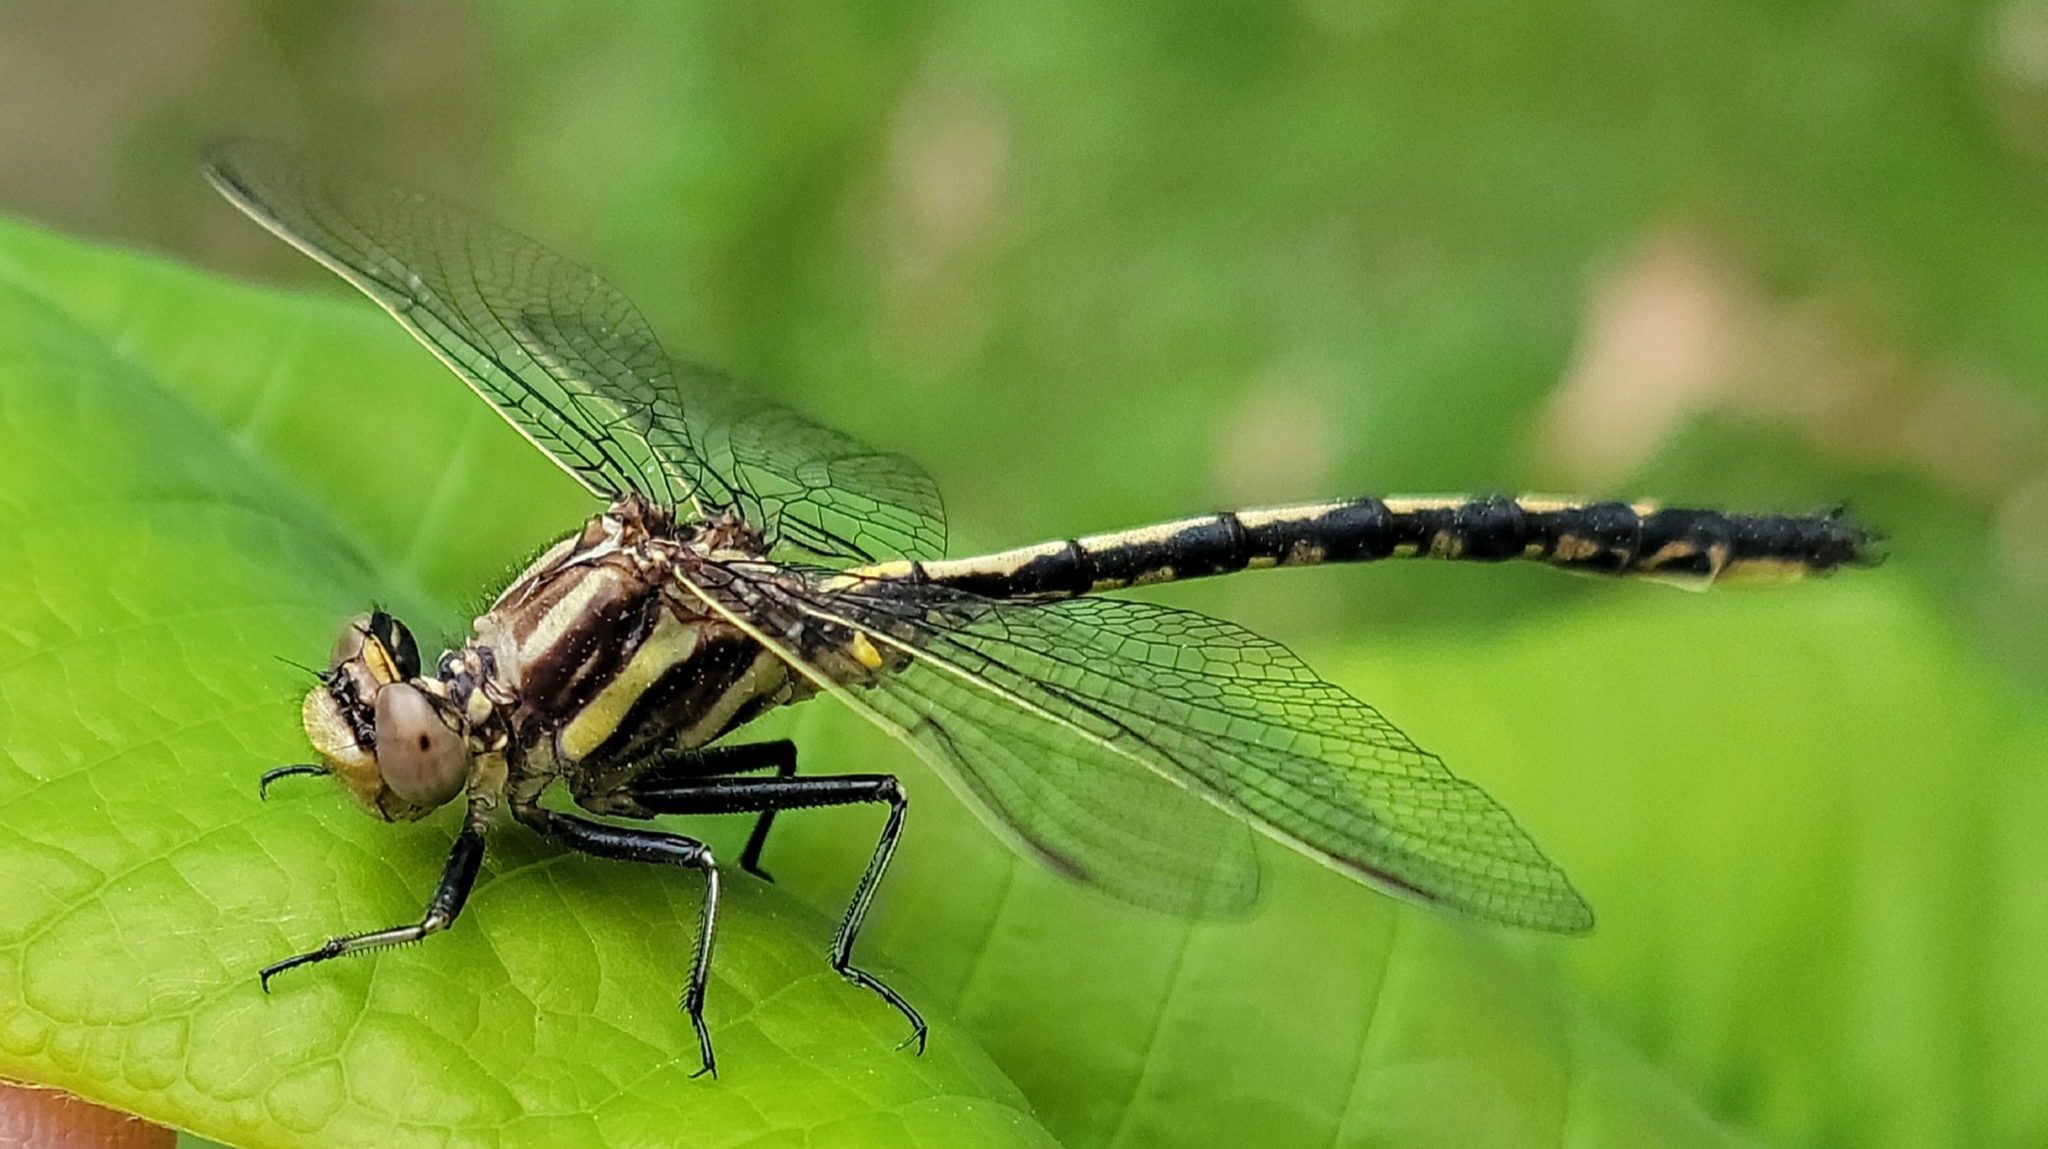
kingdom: Animalia
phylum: Arthropoda
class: Insecta
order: Odonata
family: Gomphidae
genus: Phanogomphus
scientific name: Phanogomphus spicatus
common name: Dusky clubtail
